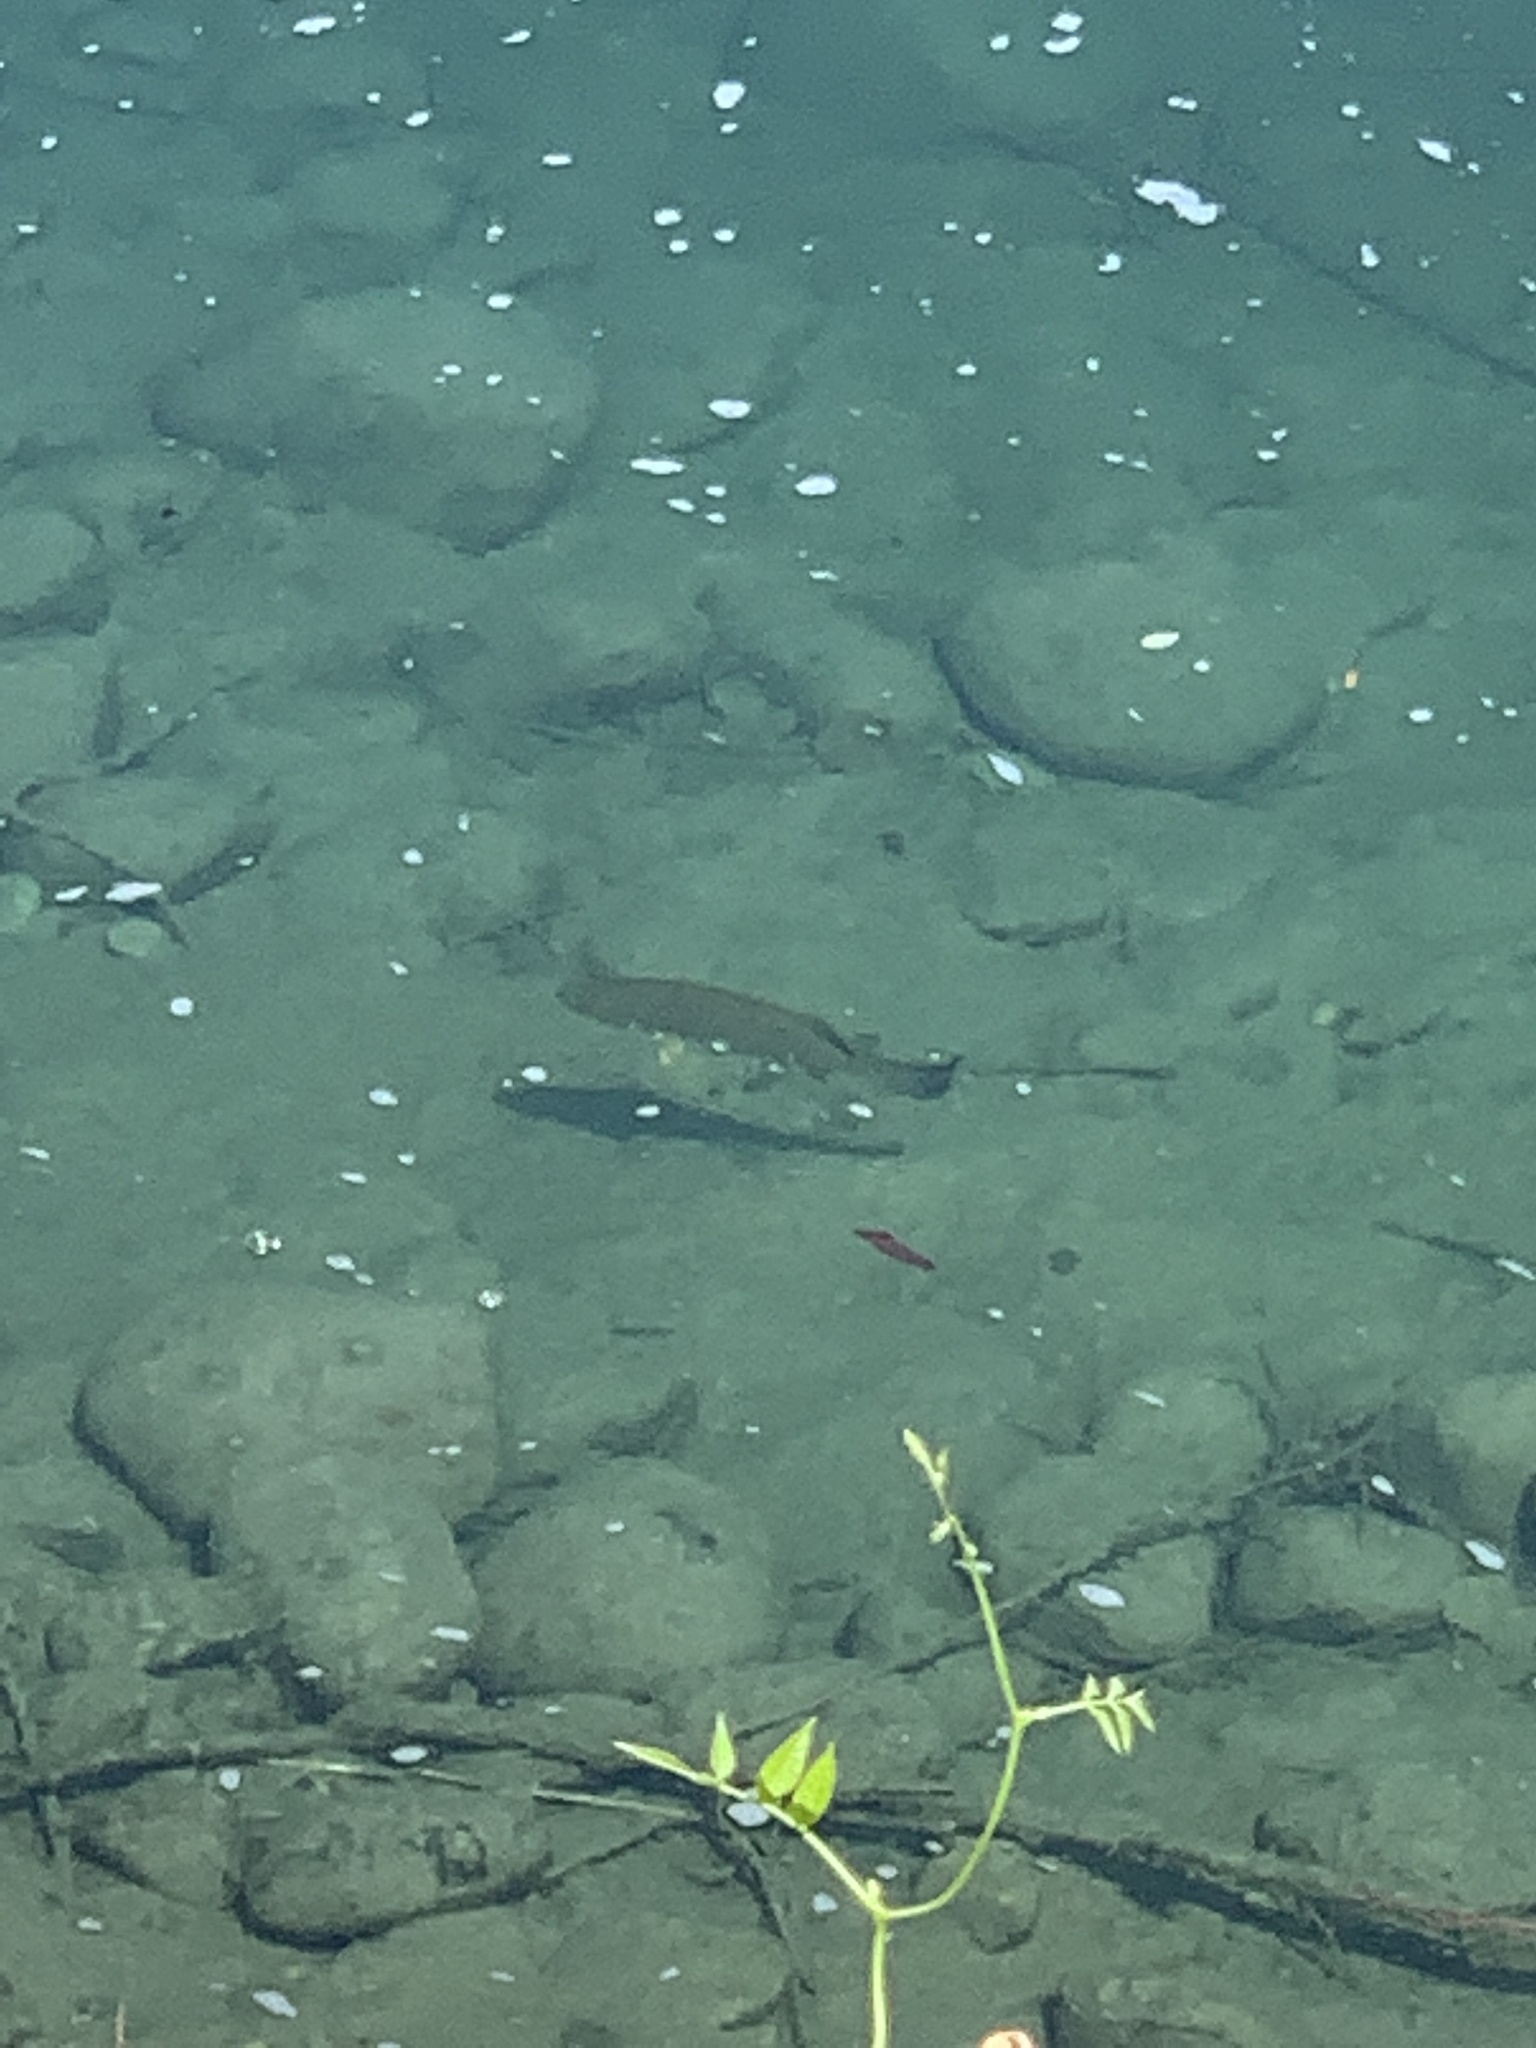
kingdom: Animalia
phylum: Chordata
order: Perciformes
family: Centrarchidae
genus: Micropterus
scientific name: Micropterus dolomieu
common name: Smallmouth bass
